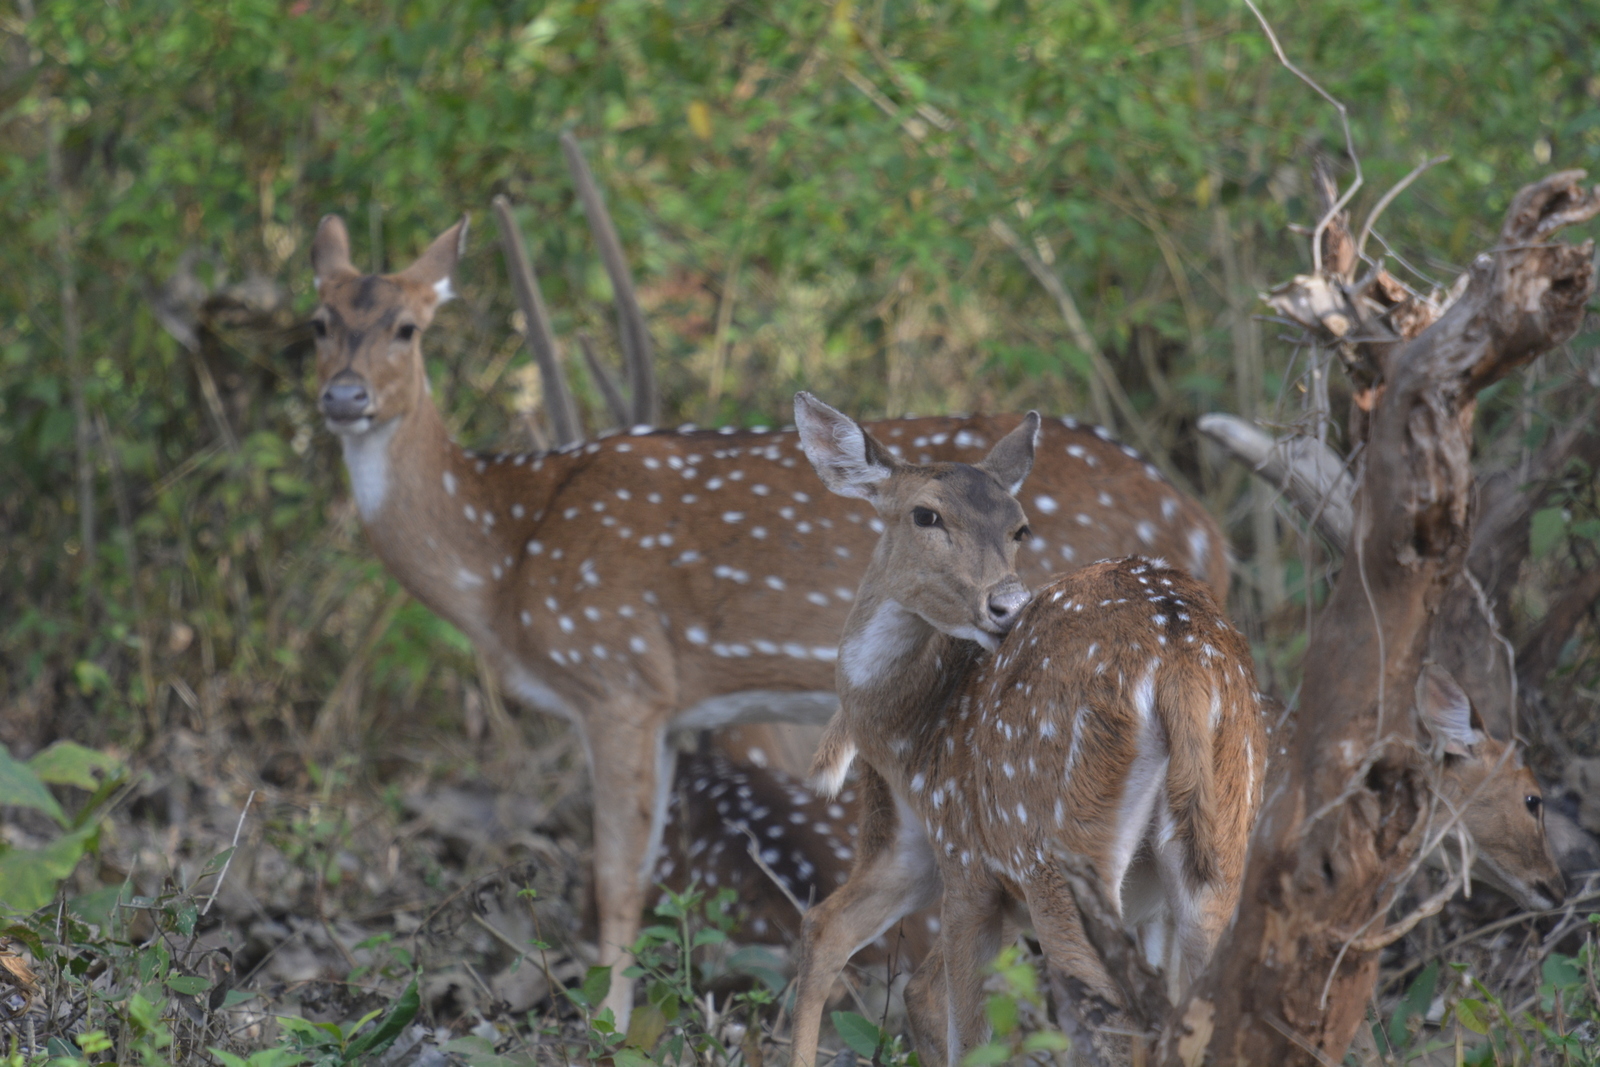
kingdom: Animalia
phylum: Chordata
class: Mammalia
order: Artiodactyla
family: Cervidae
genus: Axis
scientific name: Axis axis
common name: Chital
